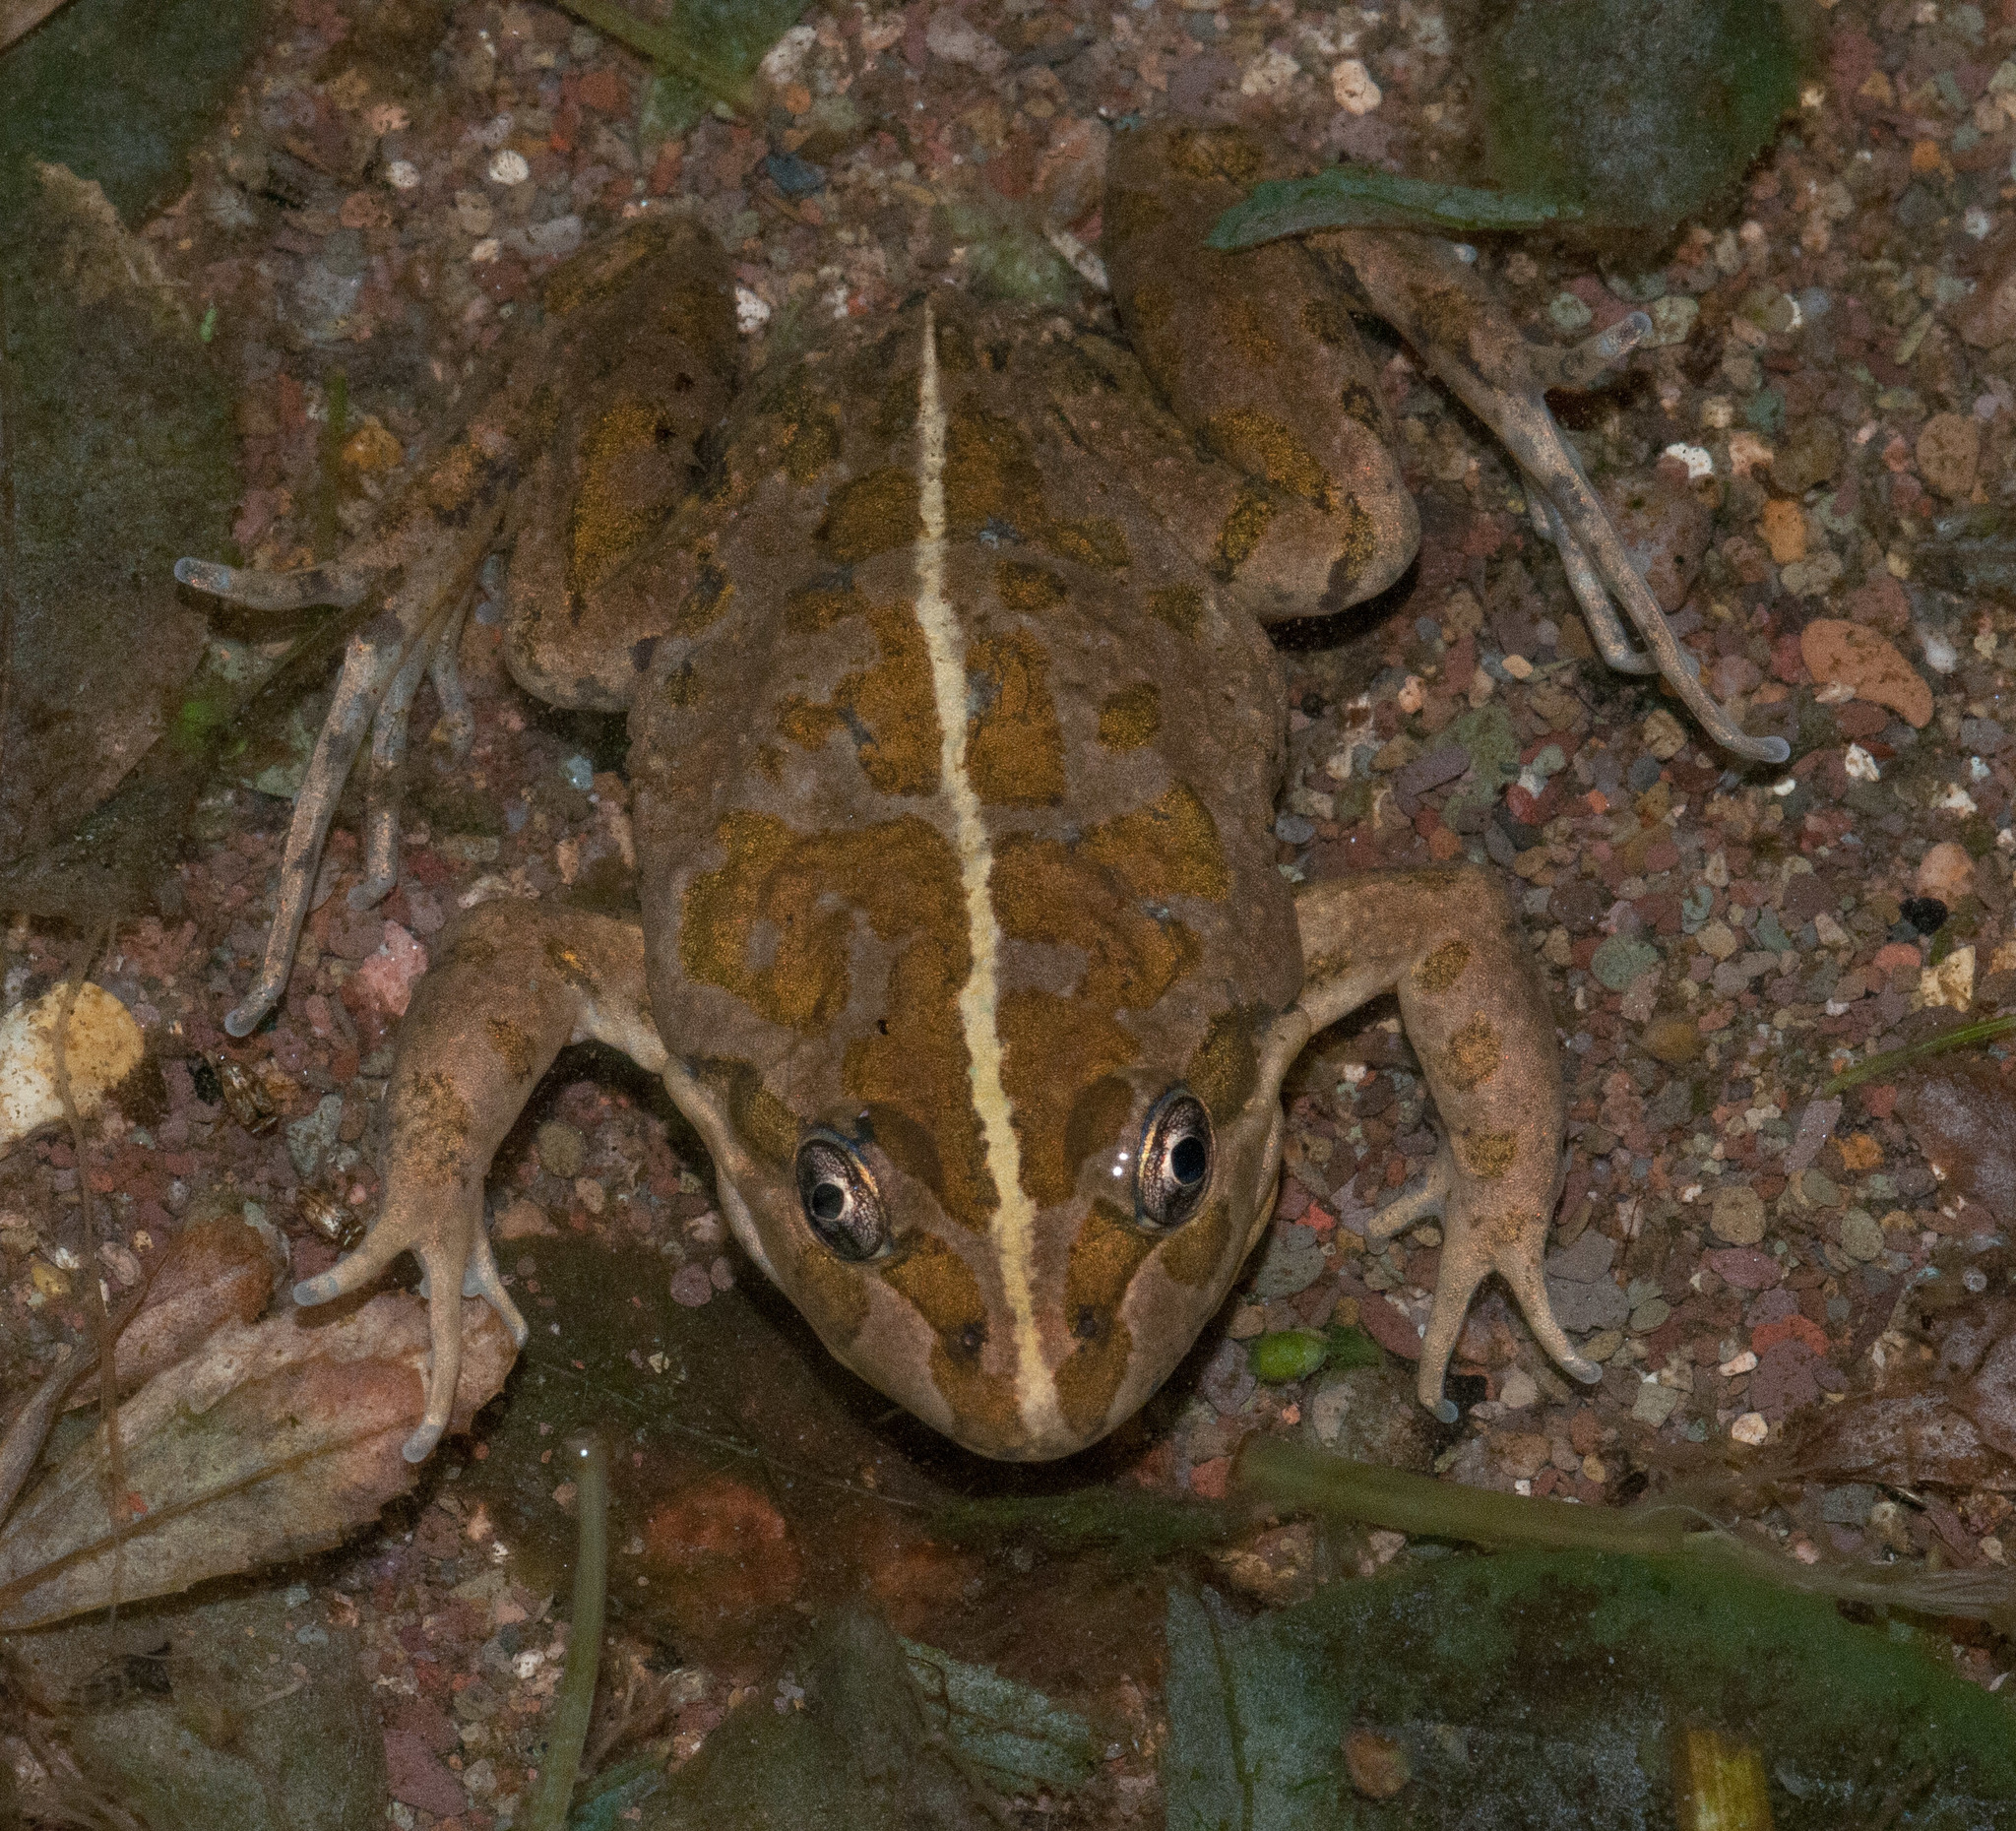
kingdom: Animalia
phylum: Chordata
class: Amphibia
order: Anura
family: Limnodynastidae
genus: Limnodynastes
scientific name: Limnodynastes tasmaniensis
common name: Spotted marsh frog
